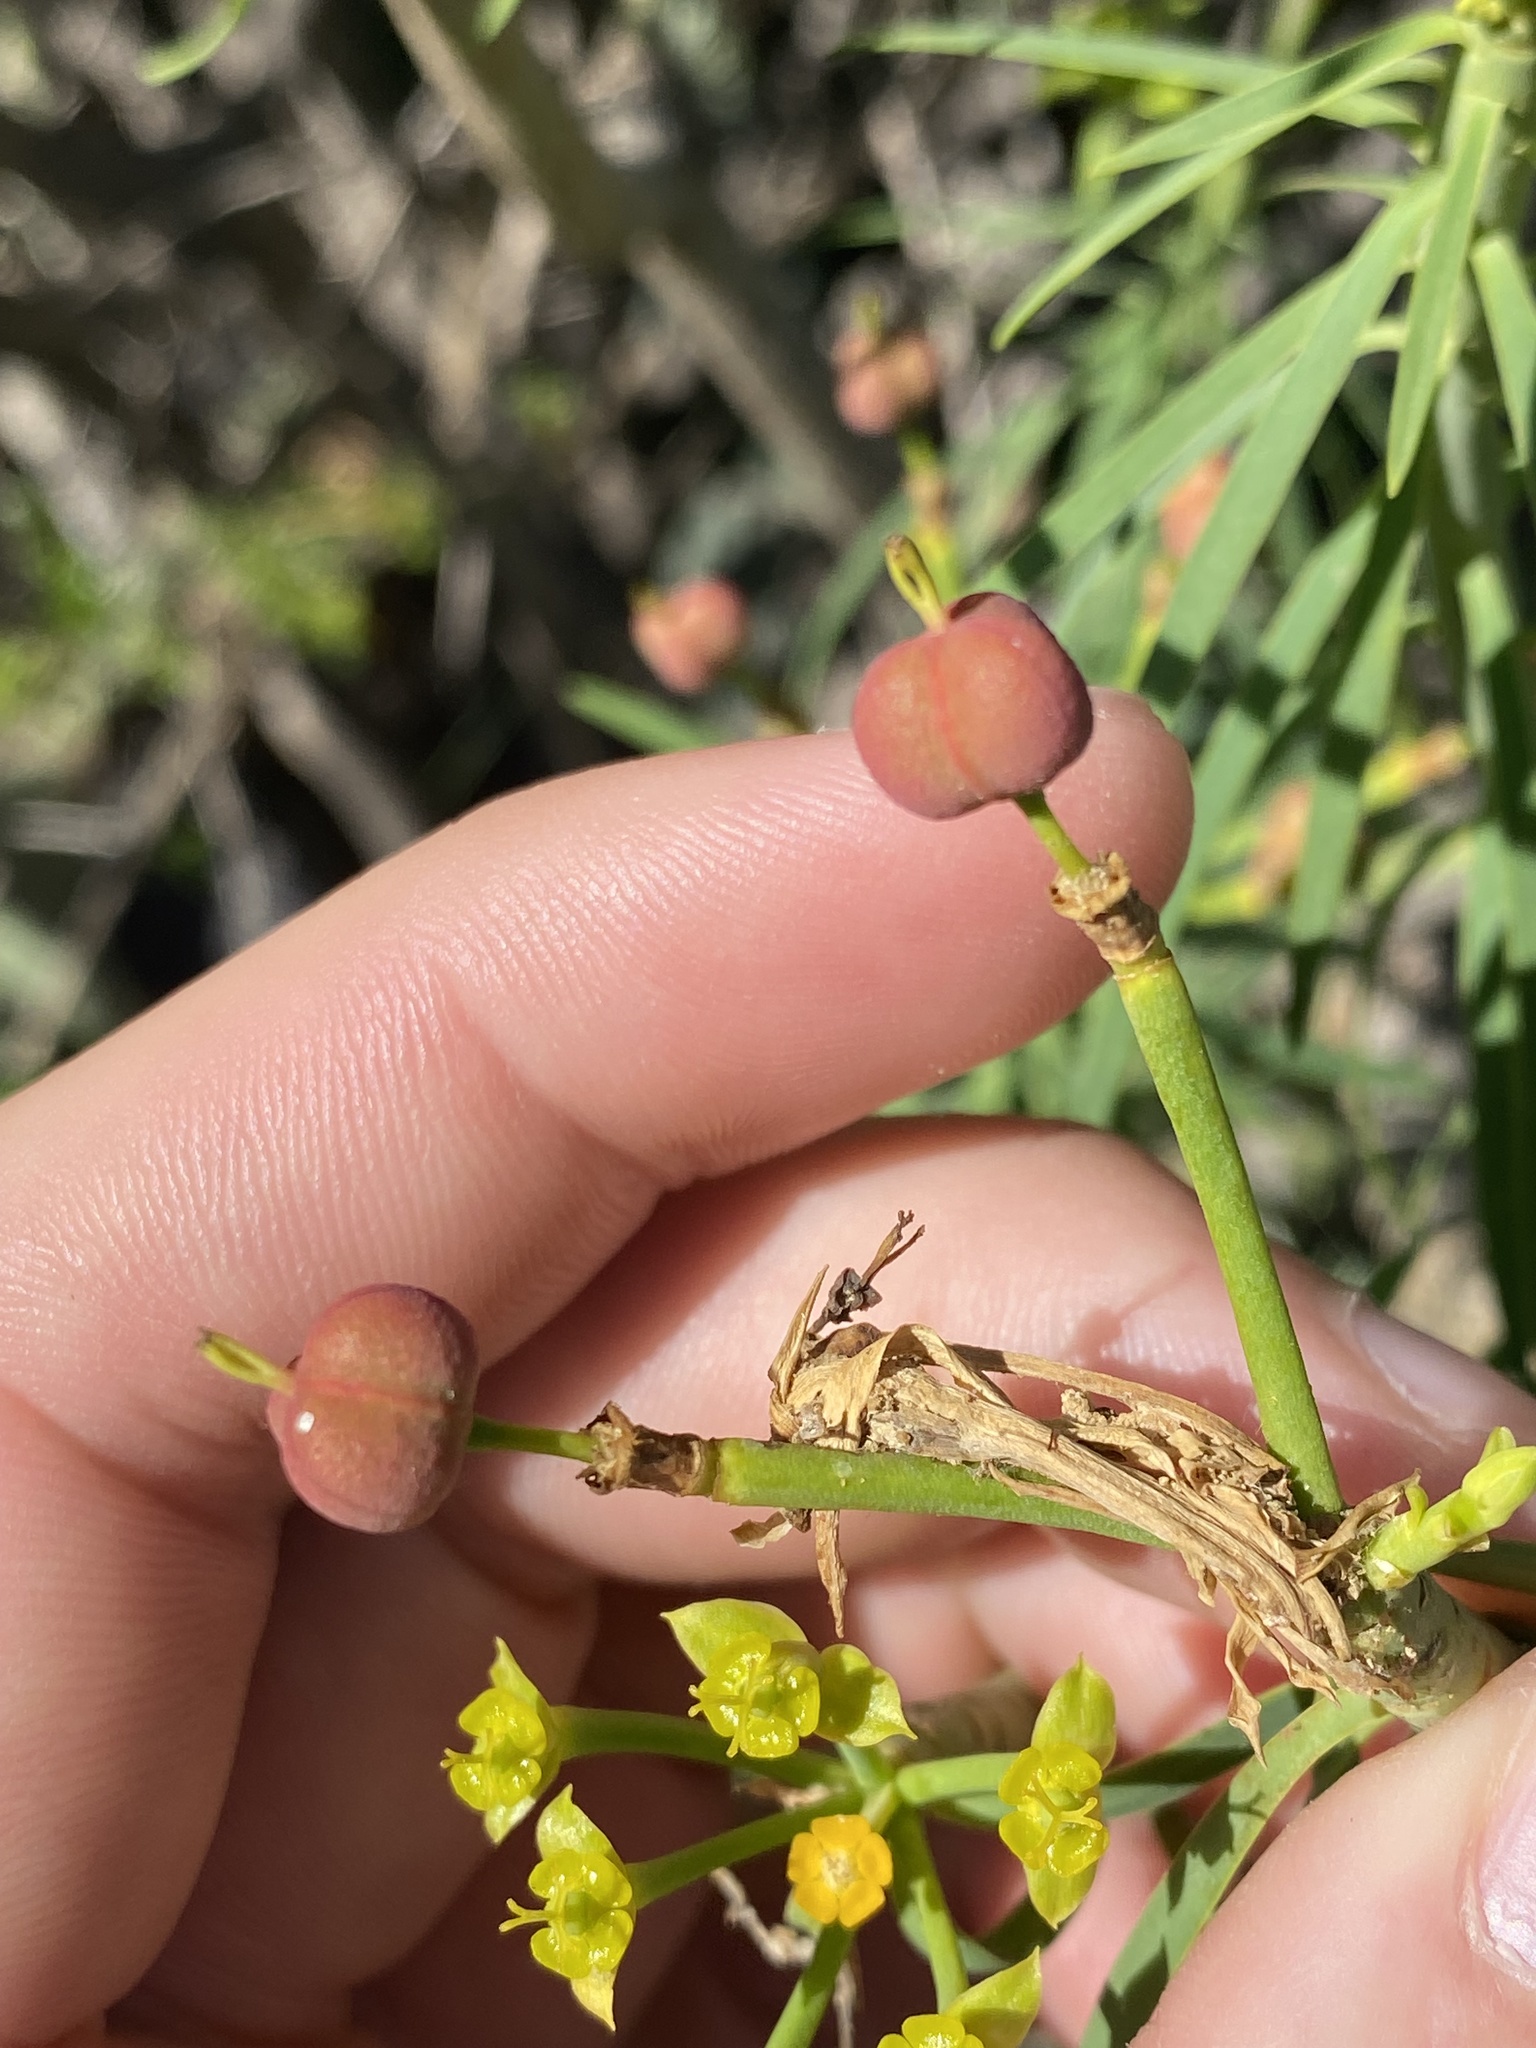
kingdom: Plantae
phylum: Tracheophyta
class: Magnoliopsida
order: Malpighiales
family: Euphorbiaceae
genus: Euphorbia
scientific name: Euphorbia lamarckii
